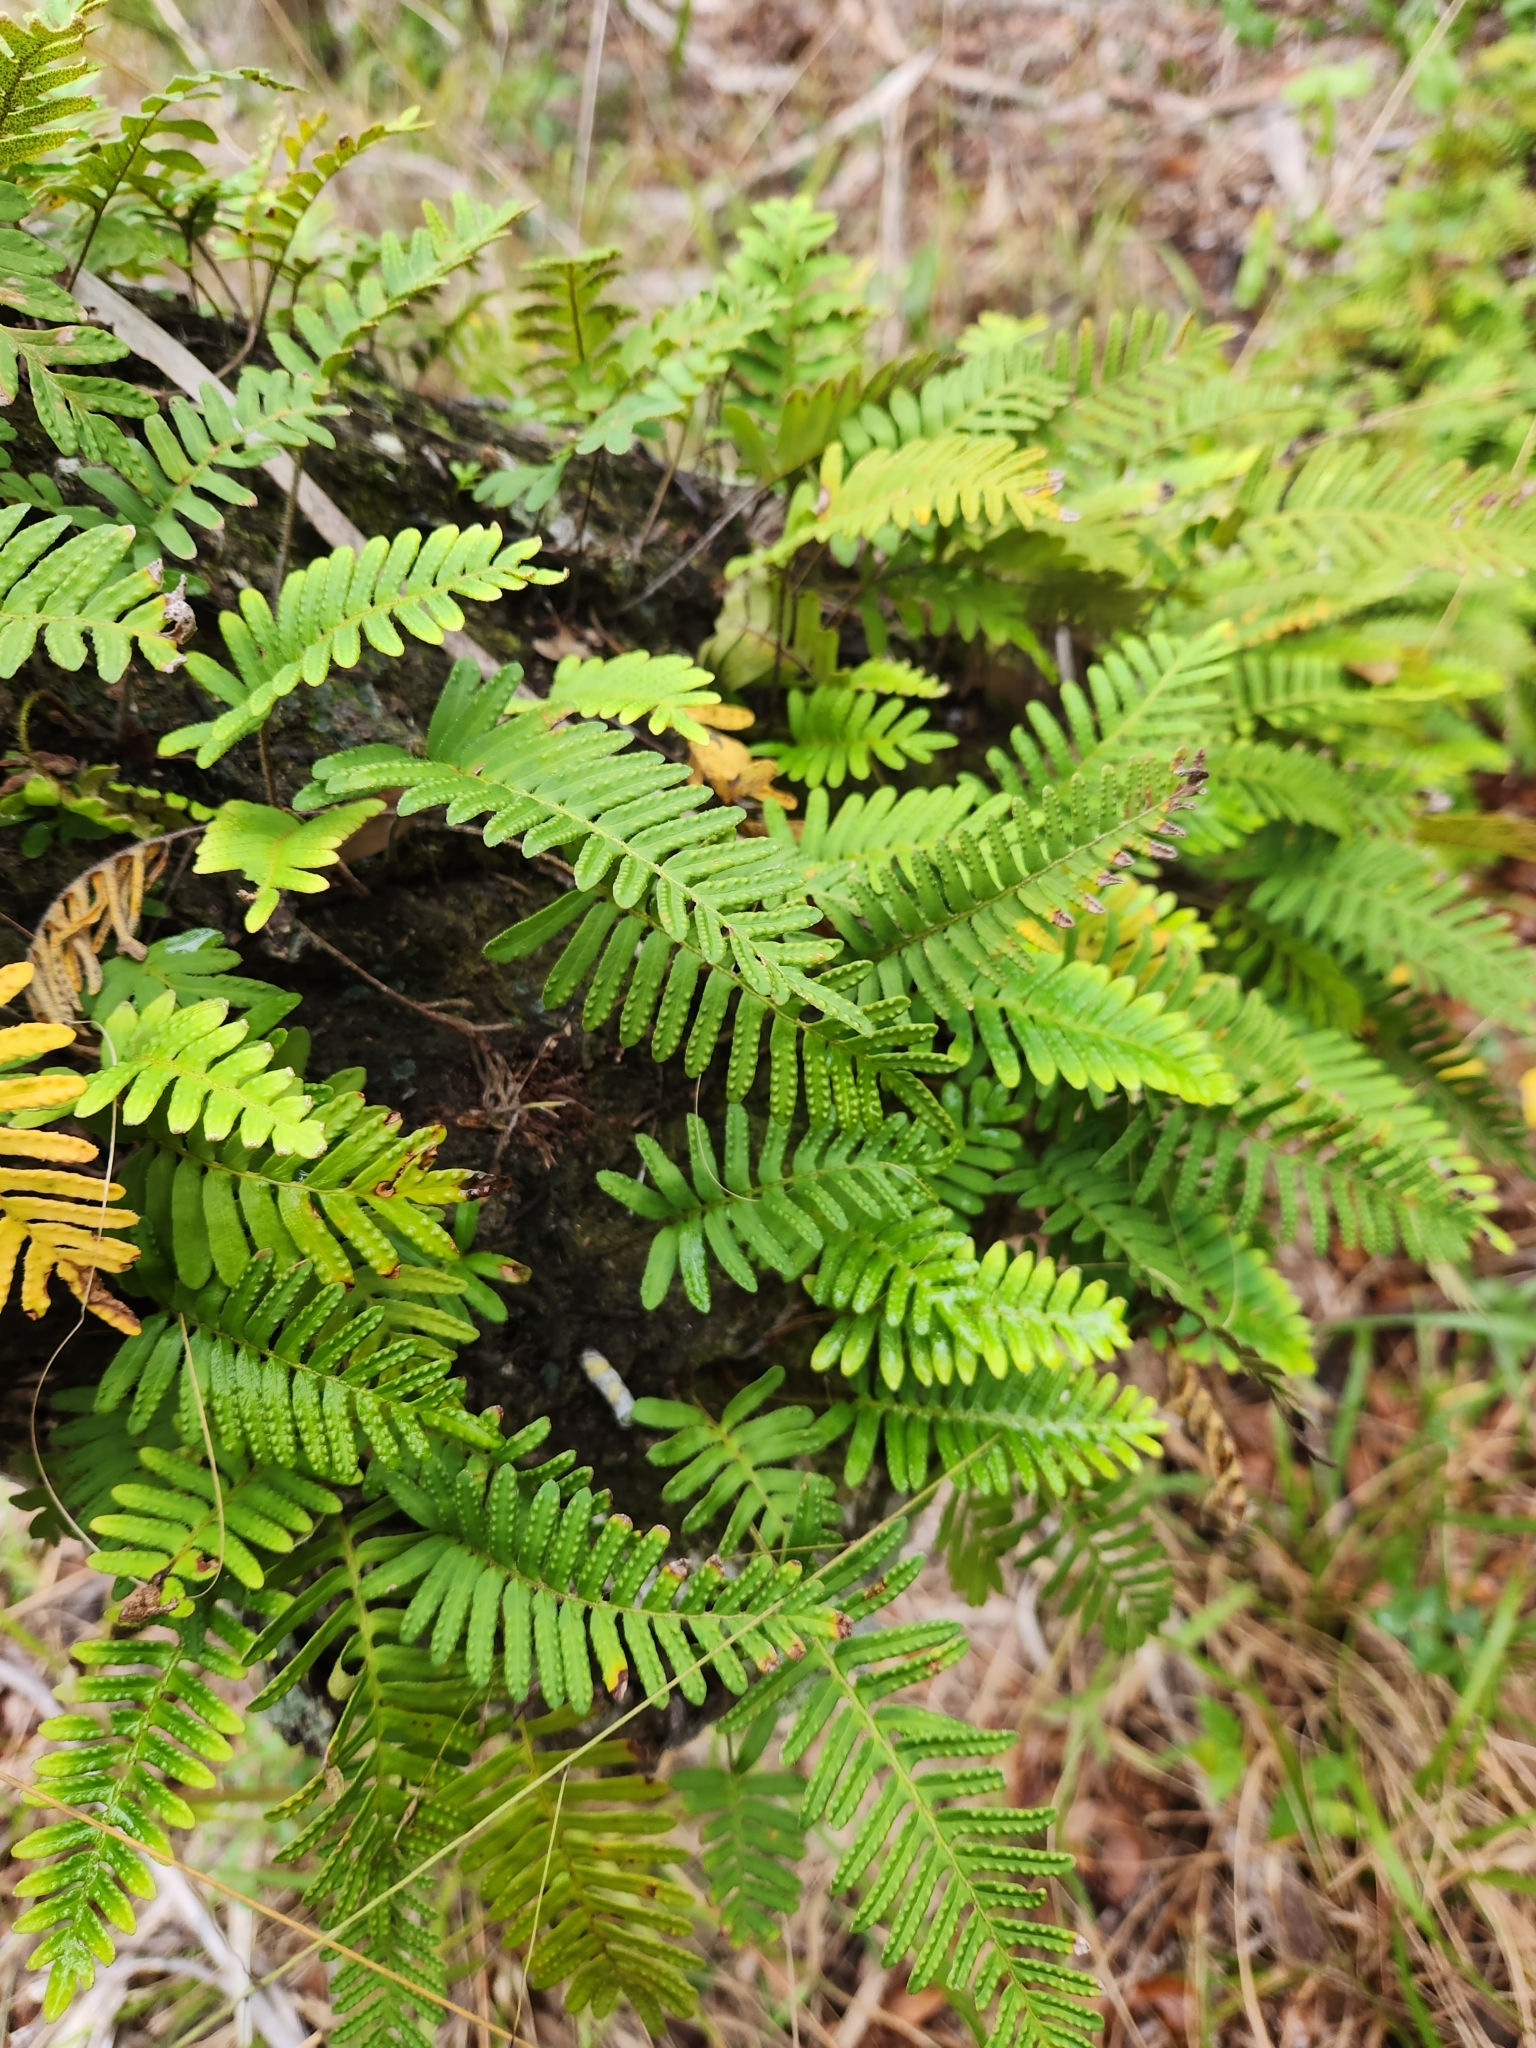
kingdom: Plantae
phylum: Tracheophyta
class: Polypodiopsida
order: Polypodiales
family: Polypodiaceae
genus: Pleopeltis
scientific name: Pleopeltis michauxiana
